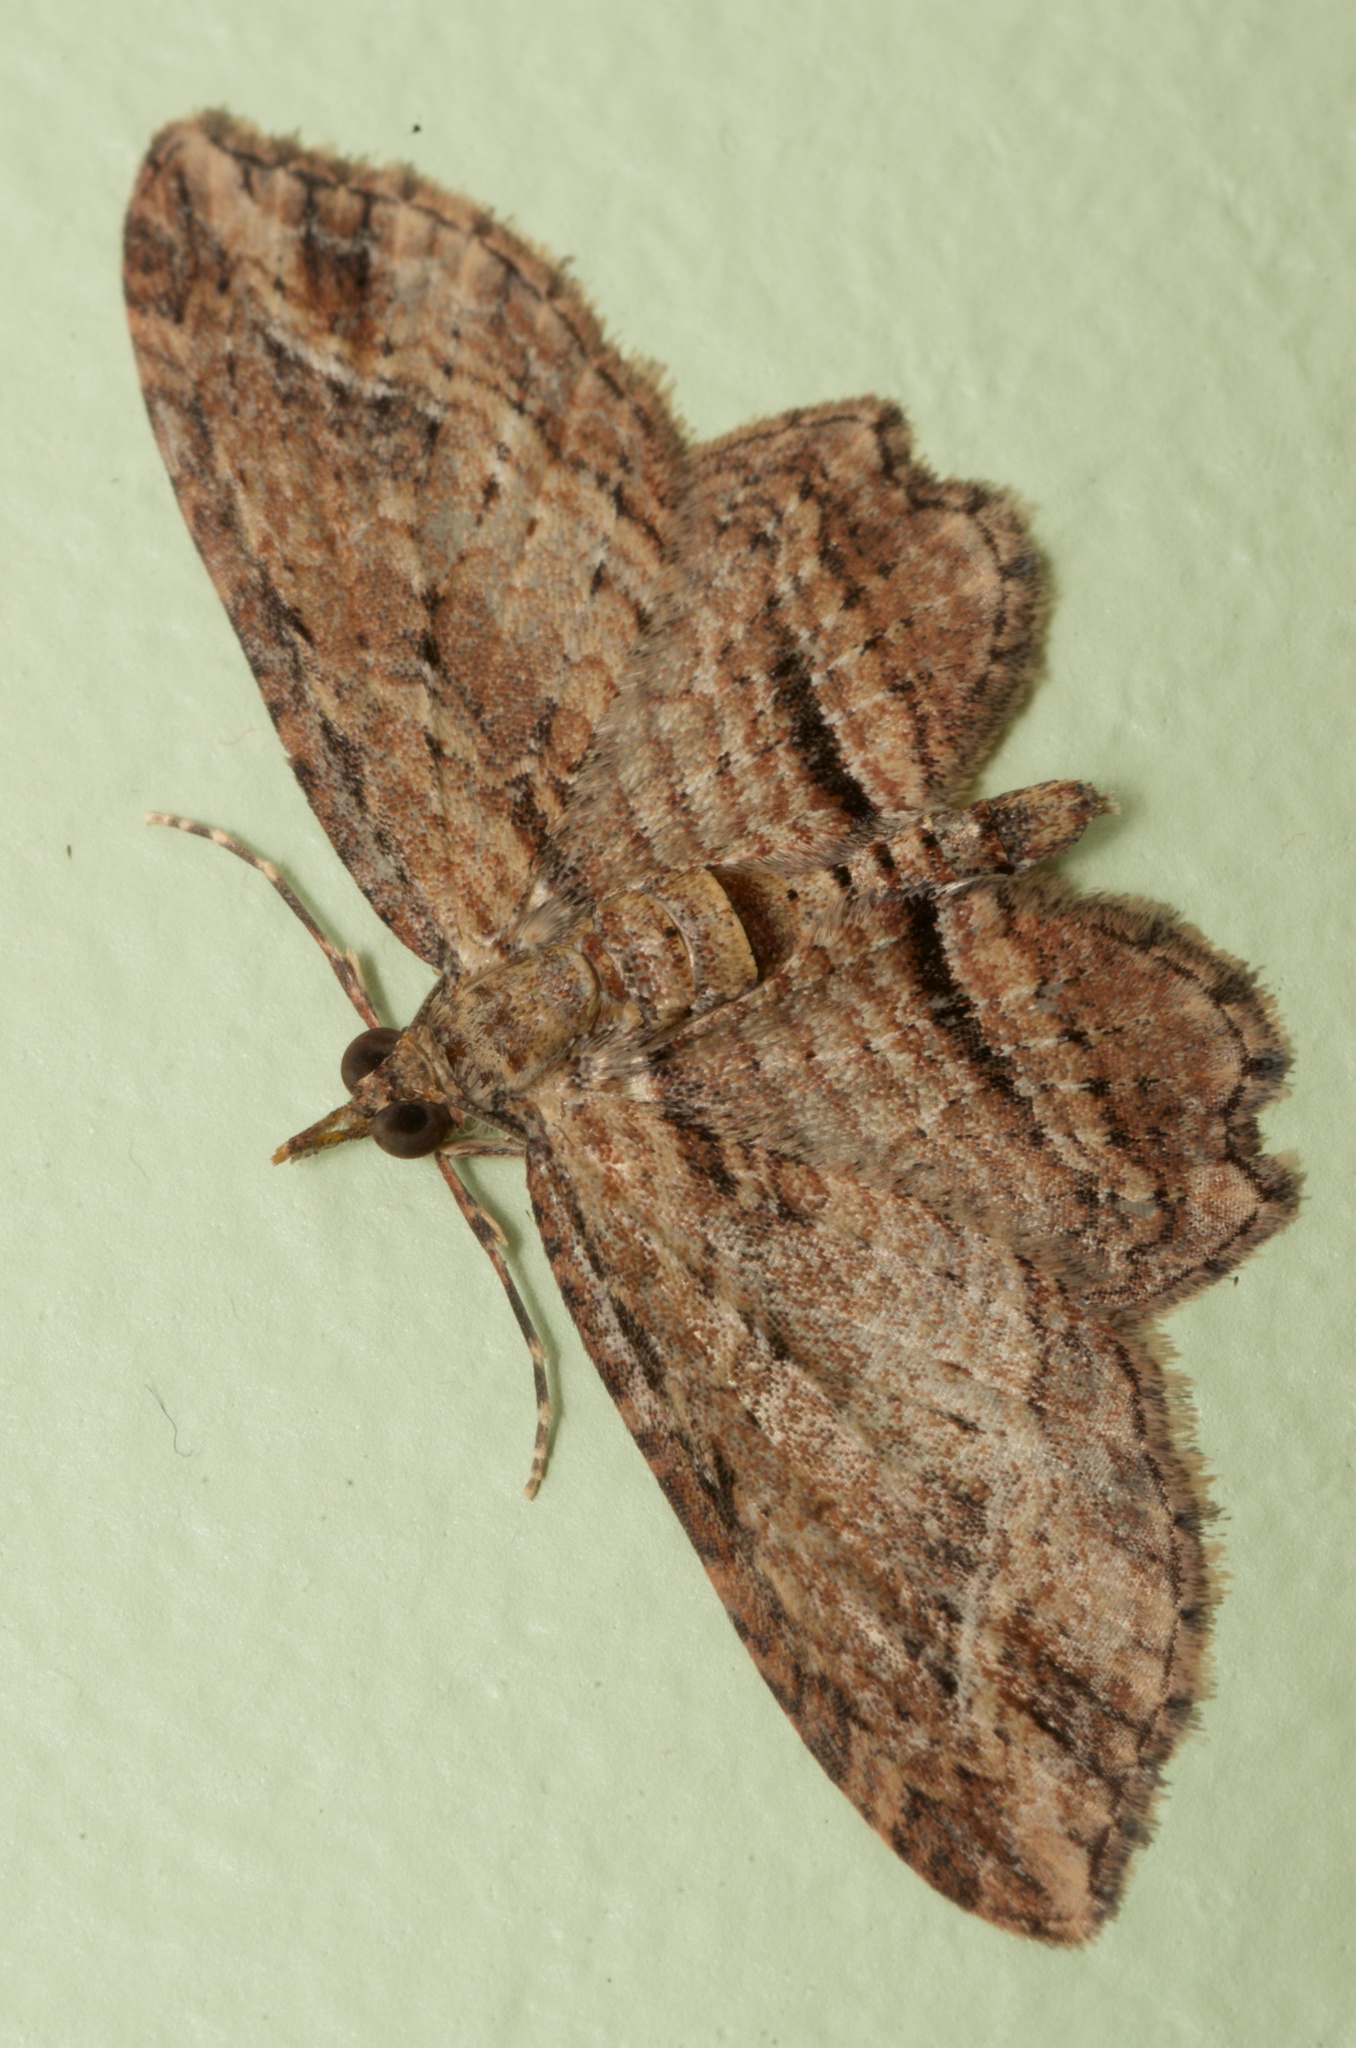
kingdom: Animalia
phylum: Arthropoda
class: Insecta
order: Lepidoptera
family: Geometridae
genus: Chloroclystis
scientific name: Chloroclystis filata
